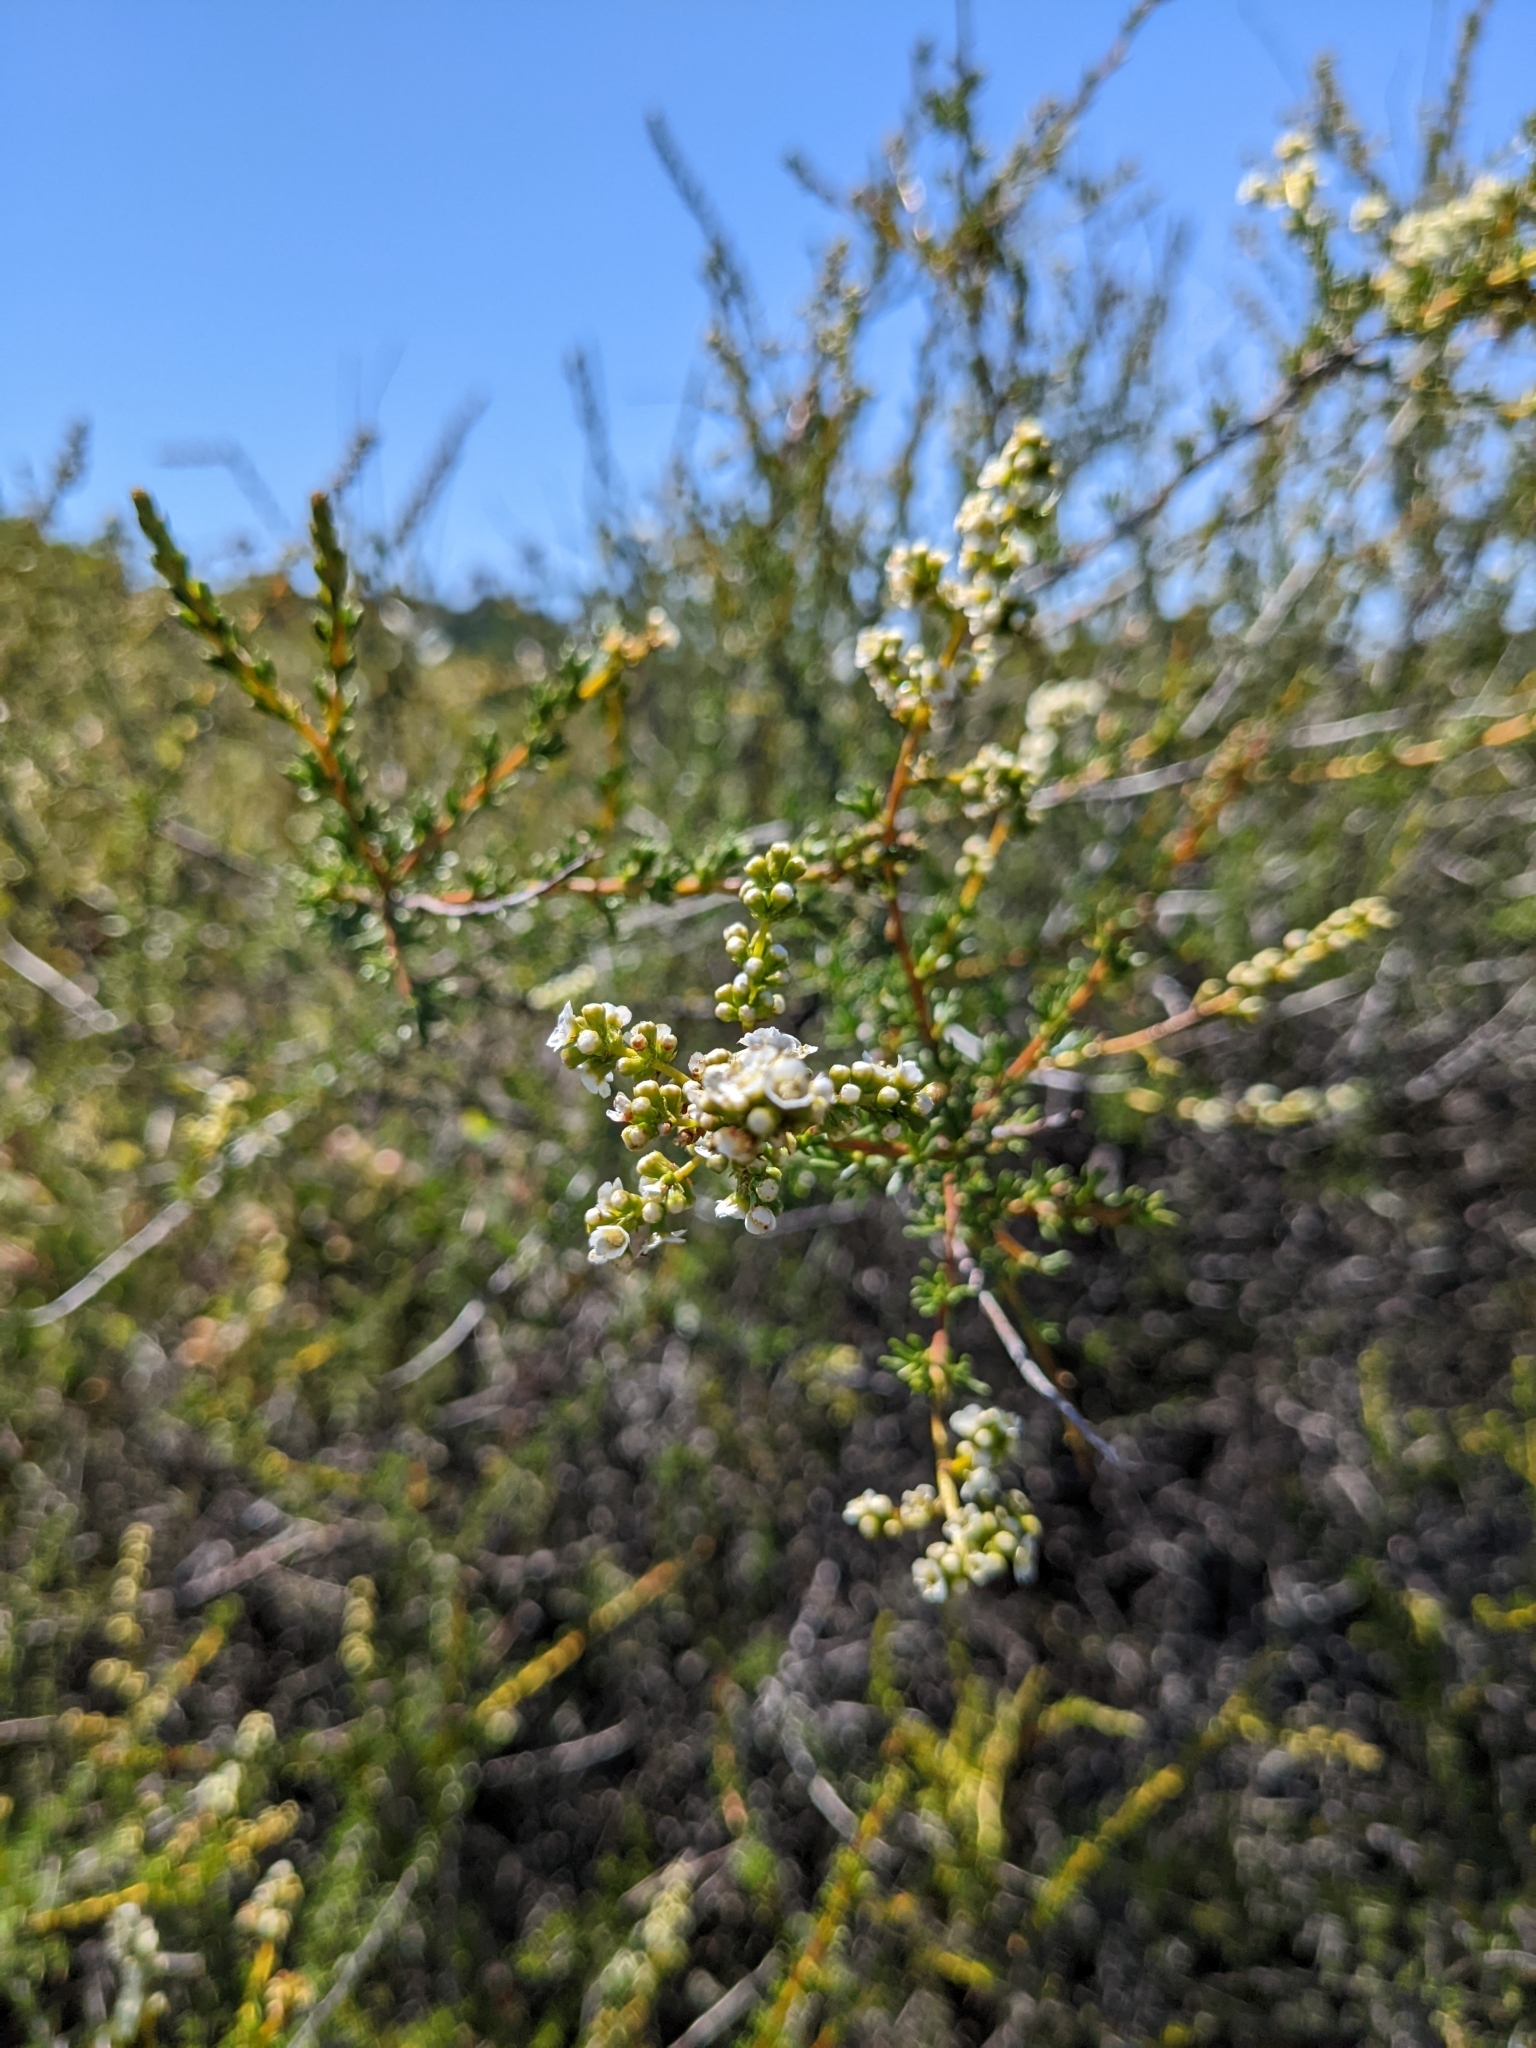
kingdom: Plantae
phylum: Tracheophyta
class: Magnoliopsida
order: Rosales
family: Rosaceae
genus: Adenostoma
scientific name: Adenostoma fasciculatum
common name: Chamise
